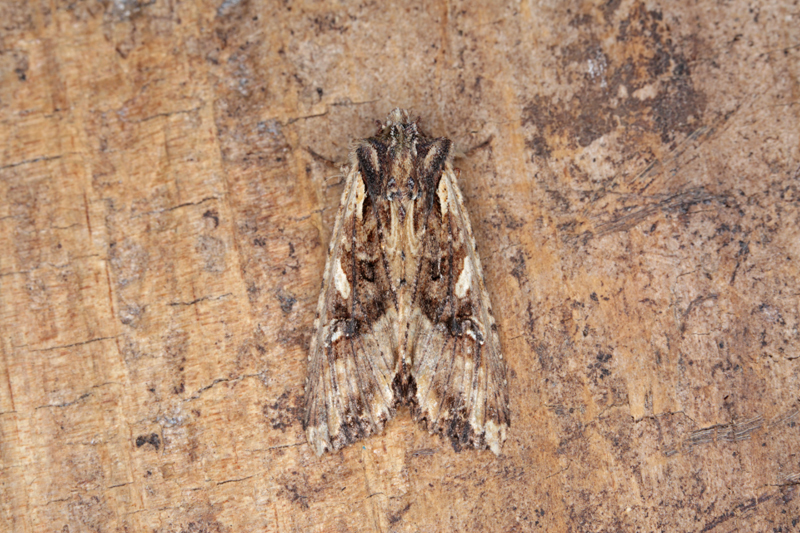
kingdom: Animalia
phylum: Arthropoda
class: Insecta
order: Lepidoptera
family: Noctuidae
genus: Meterana
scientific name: Meterana stipata
